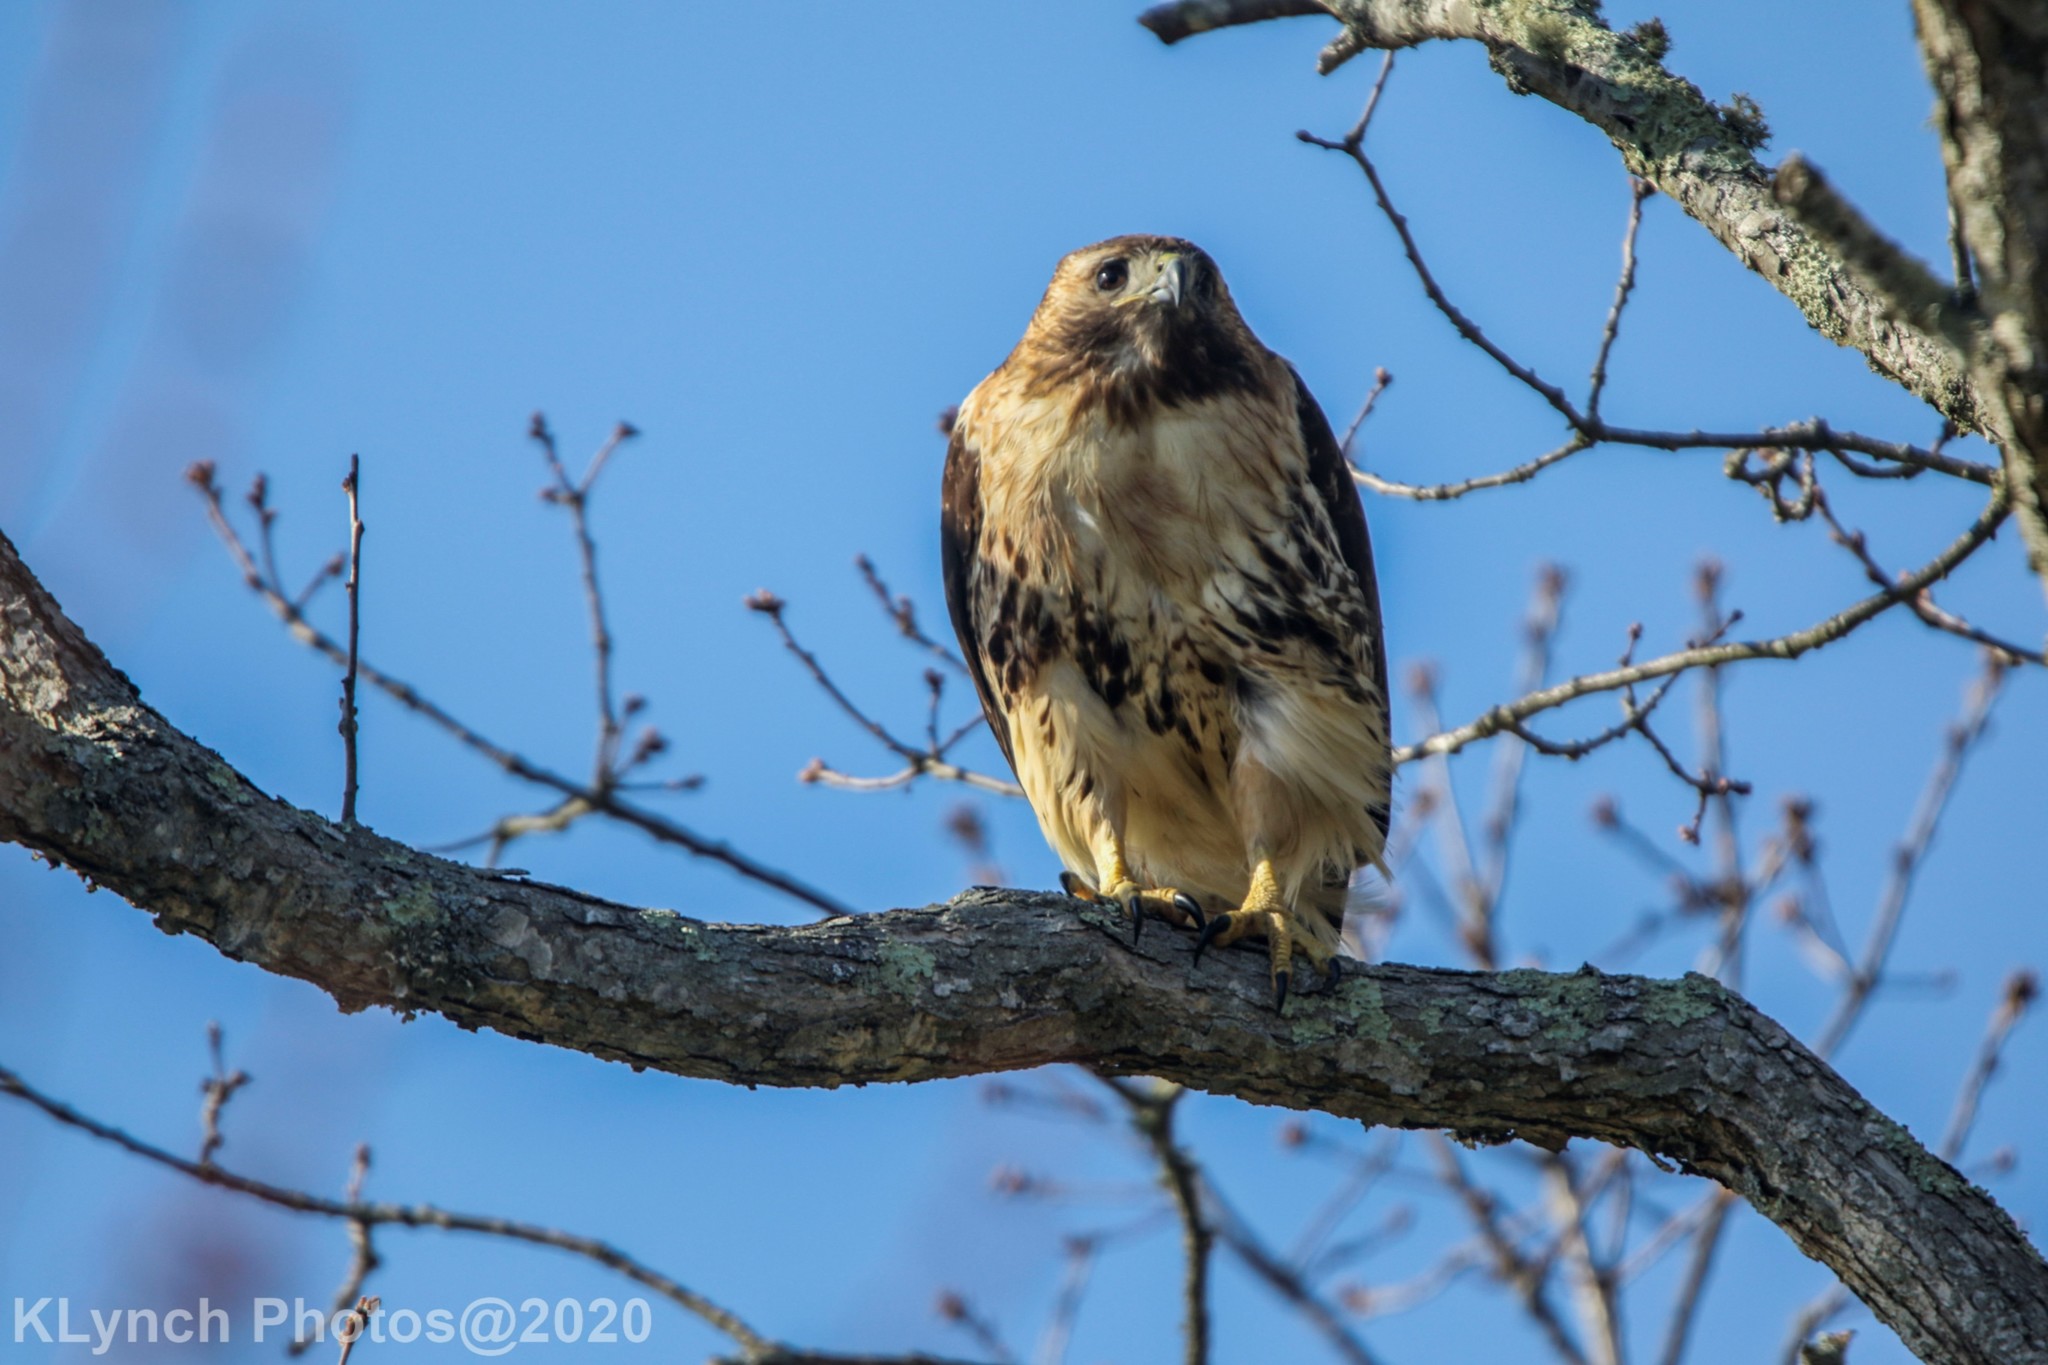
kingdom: Animalia
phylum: Chordata
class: Aves
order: Accipitriformes
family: Accipitridae
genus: Buteo
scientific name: Buteo jamaicensis
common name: Red-tailed hawk
